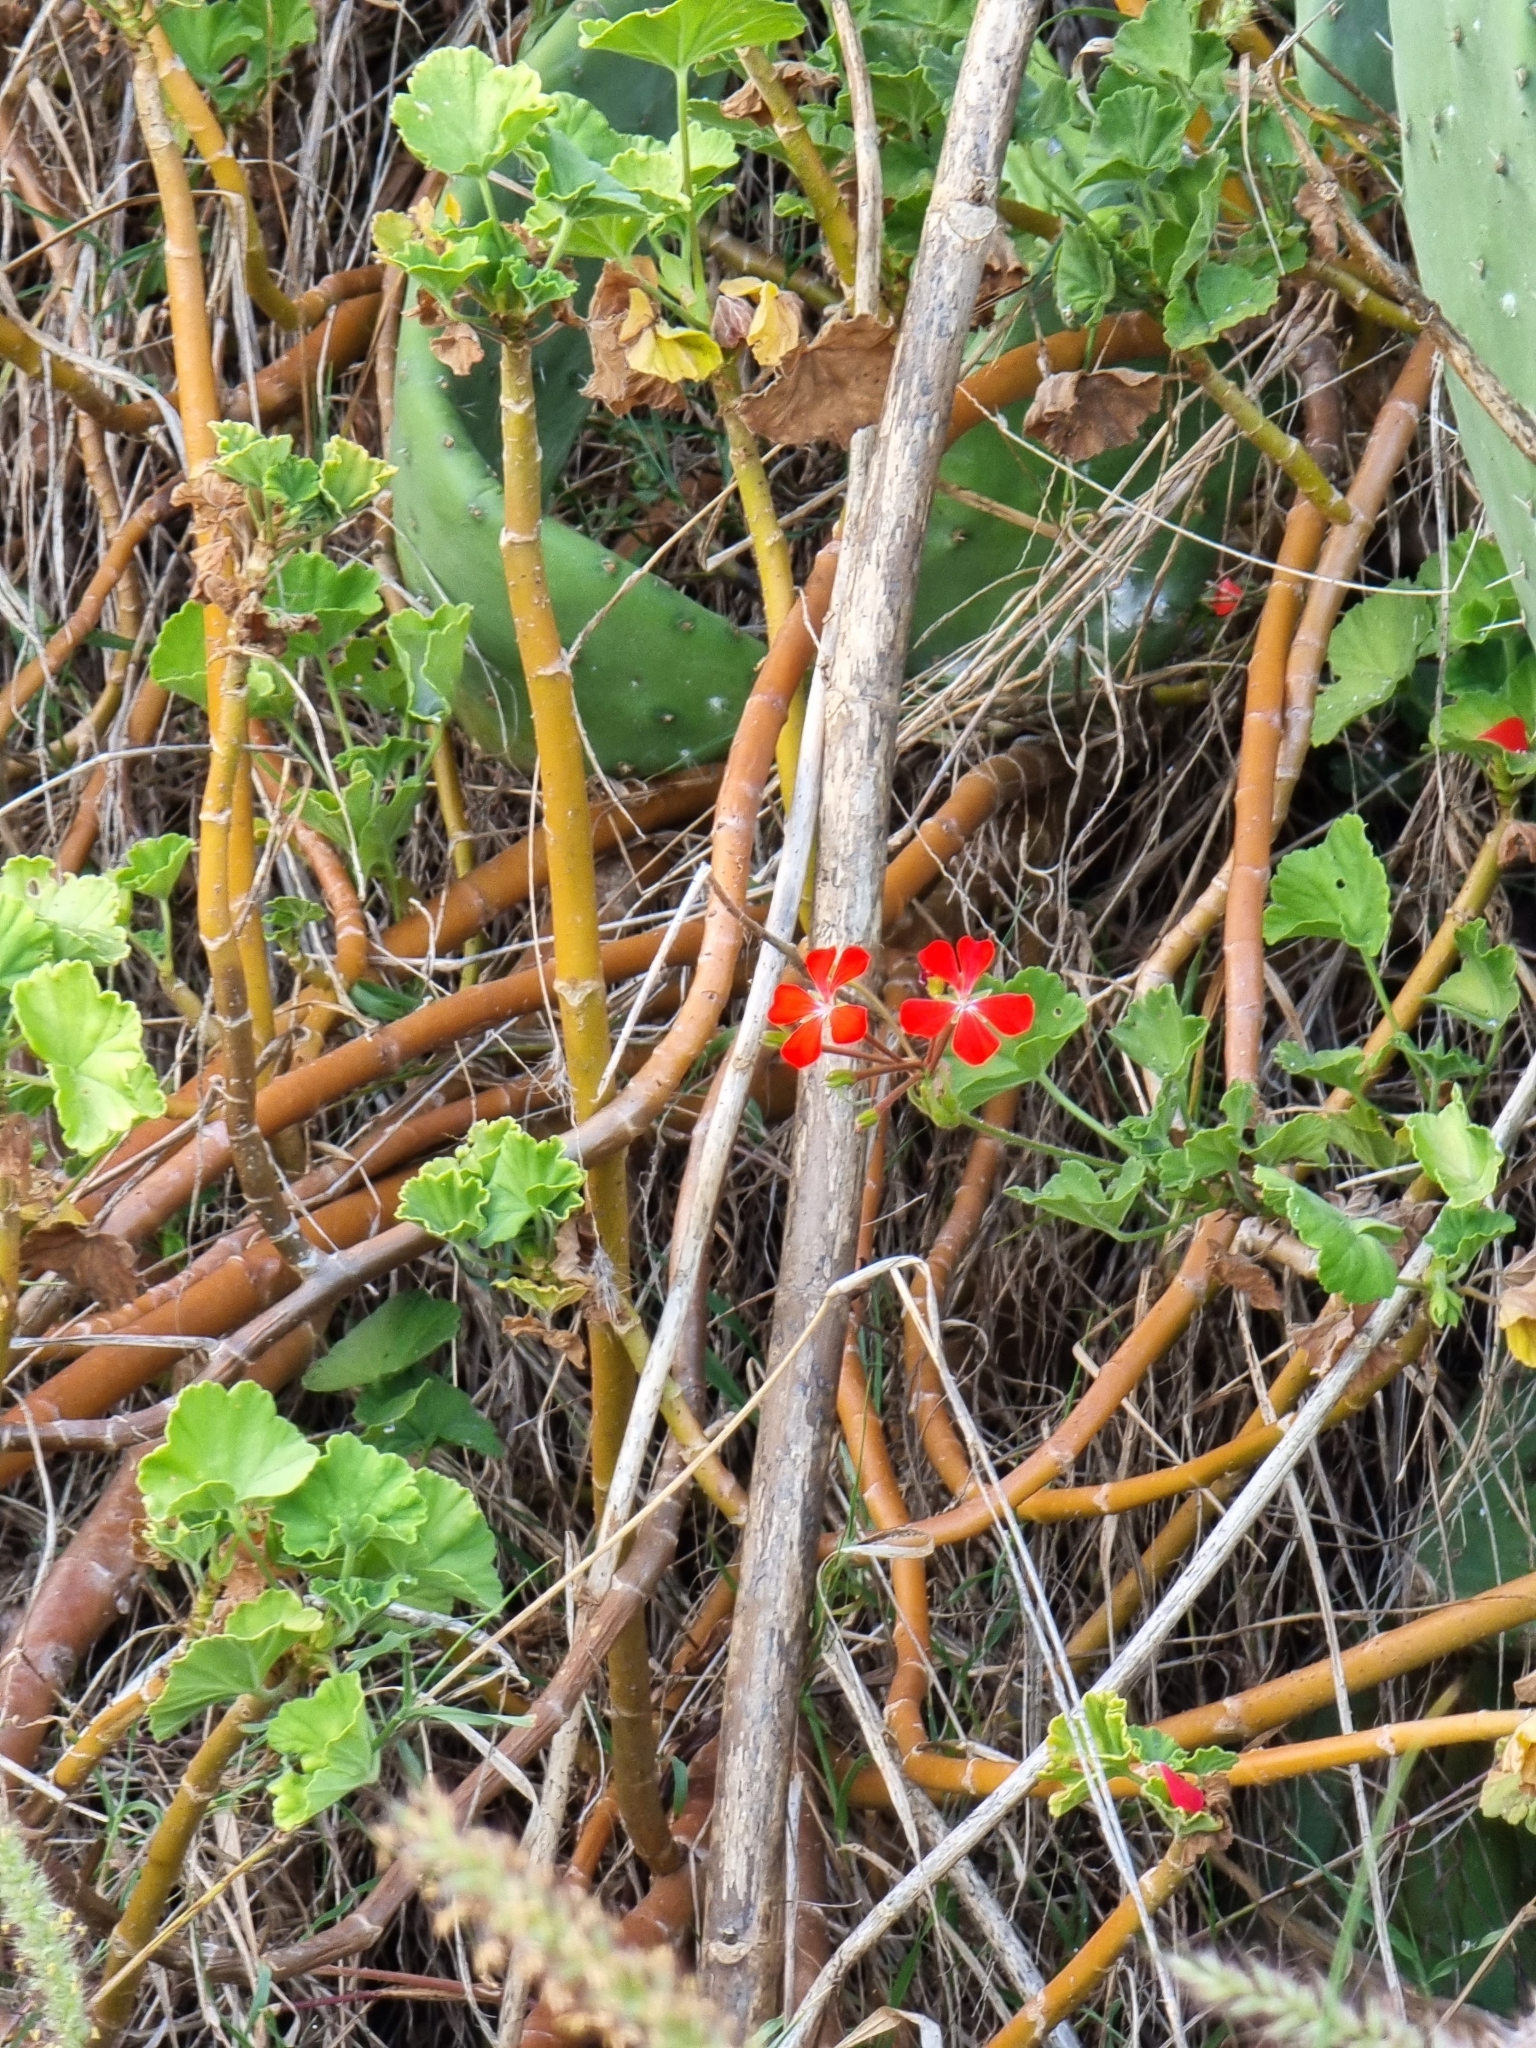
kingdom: Plantae
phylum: Tracheophyta
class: Magnoliopsida
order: Geraniales
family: Geraniaceae
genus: Pelargonium
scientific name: Pelargonium hybridum
